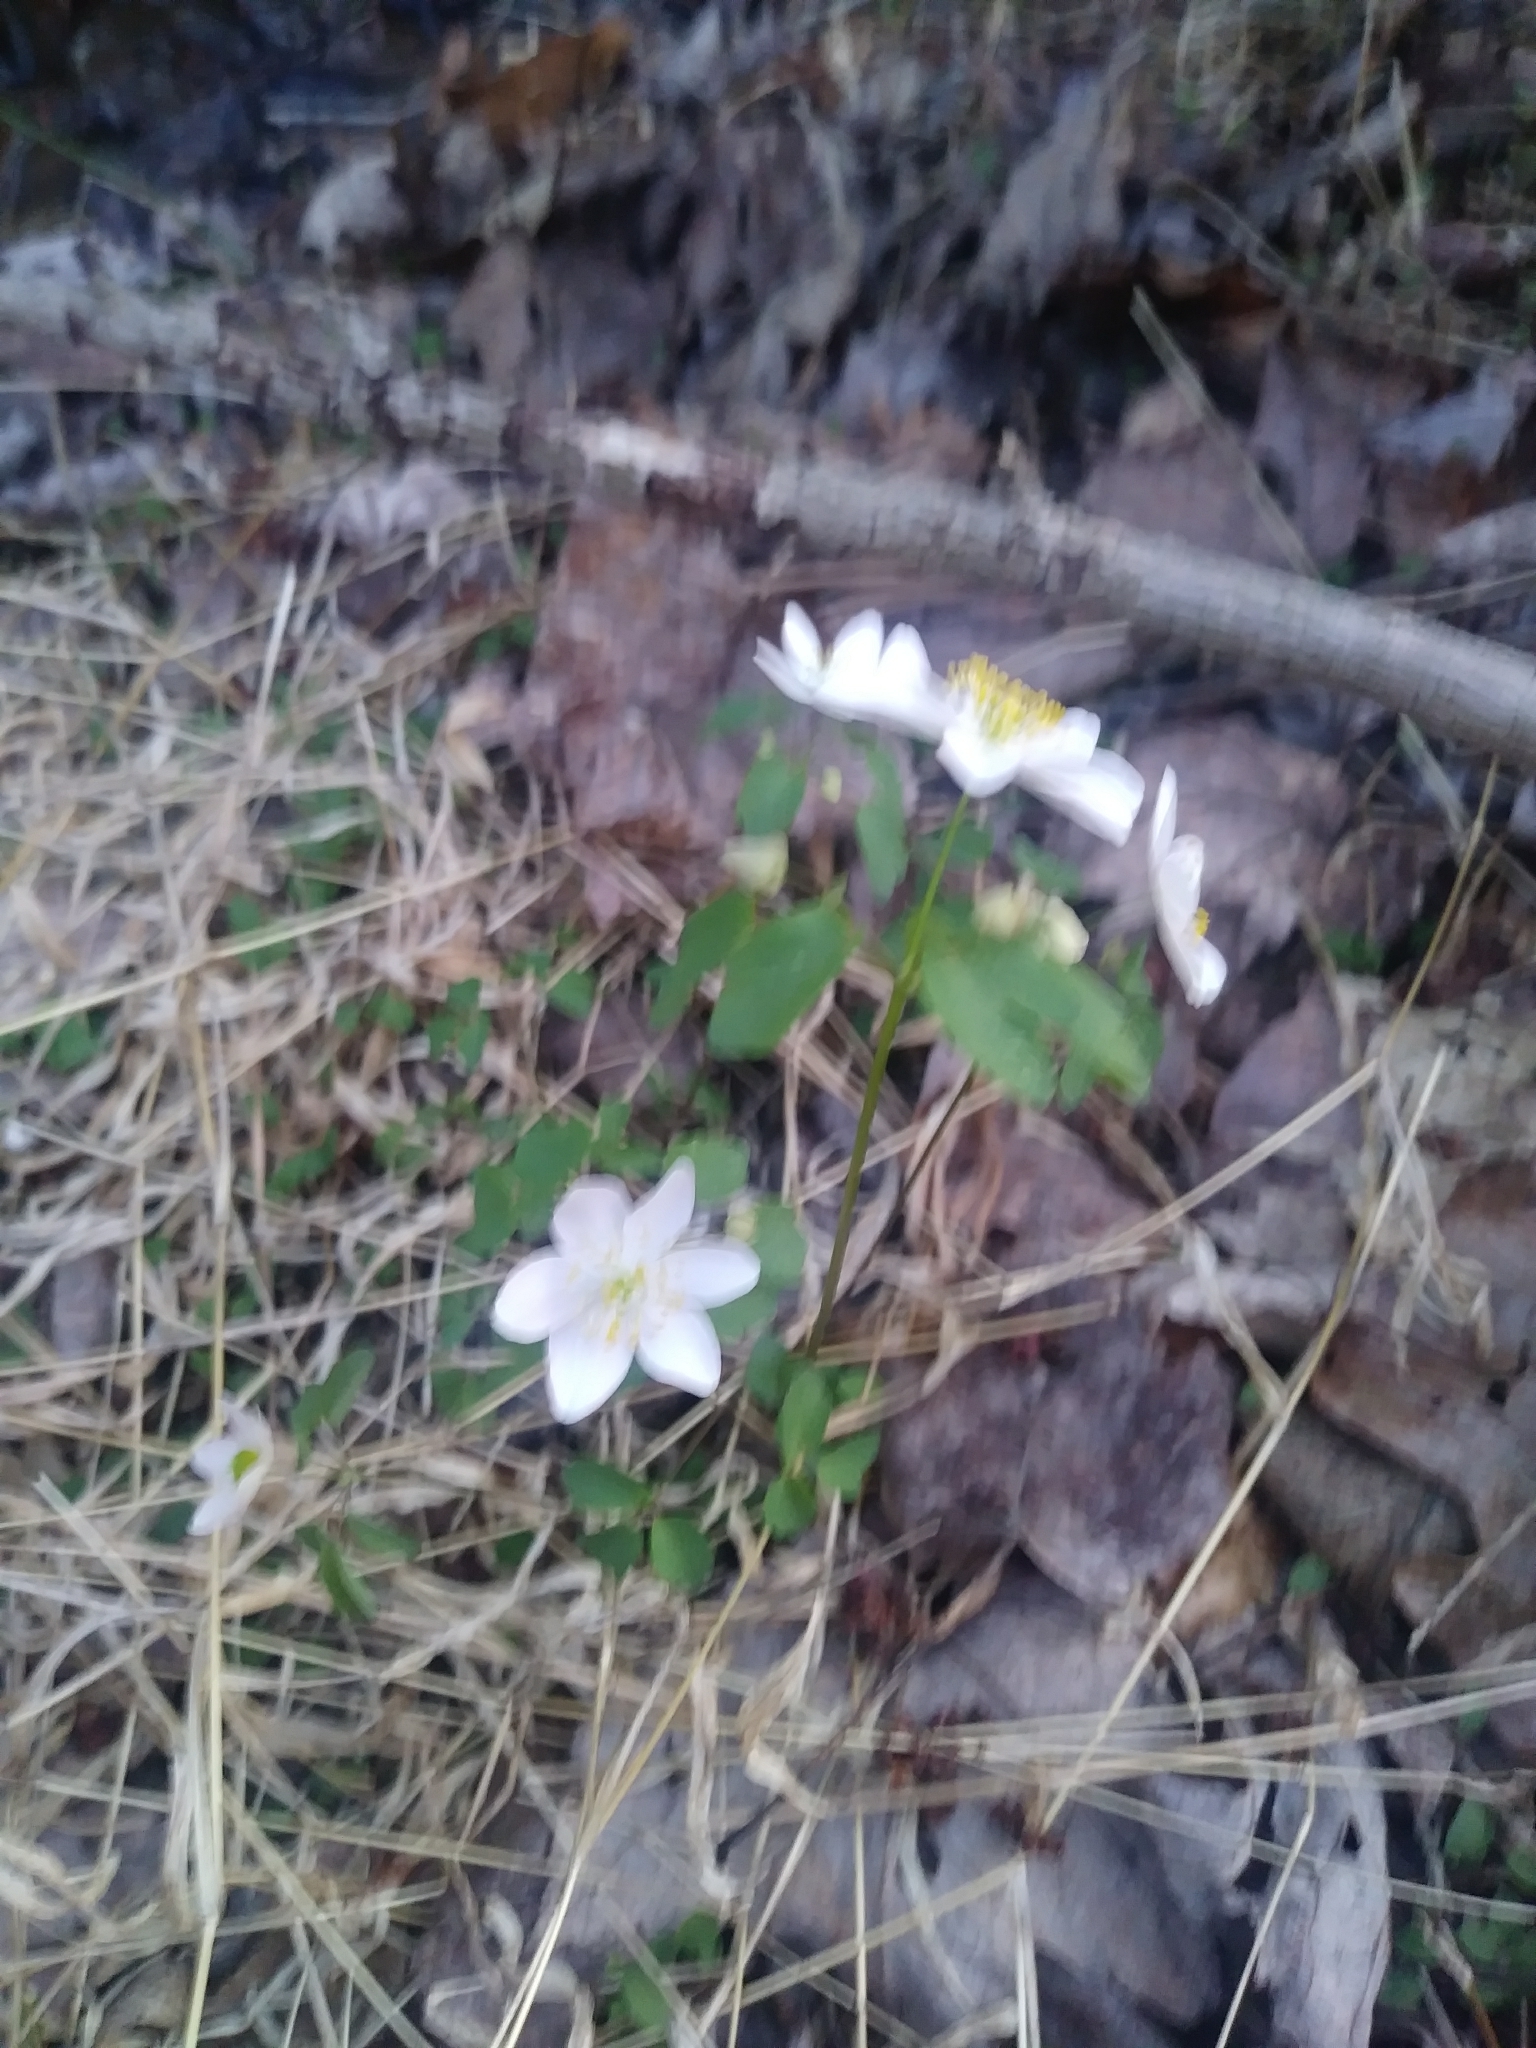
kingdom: Plantae
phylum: Tracheophyta
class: Magnoliopsida
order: Ranunculales
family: Ranunculaceae
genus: Thalictrum
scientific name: Thalictrum thalictroides
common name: Rue-anemone
